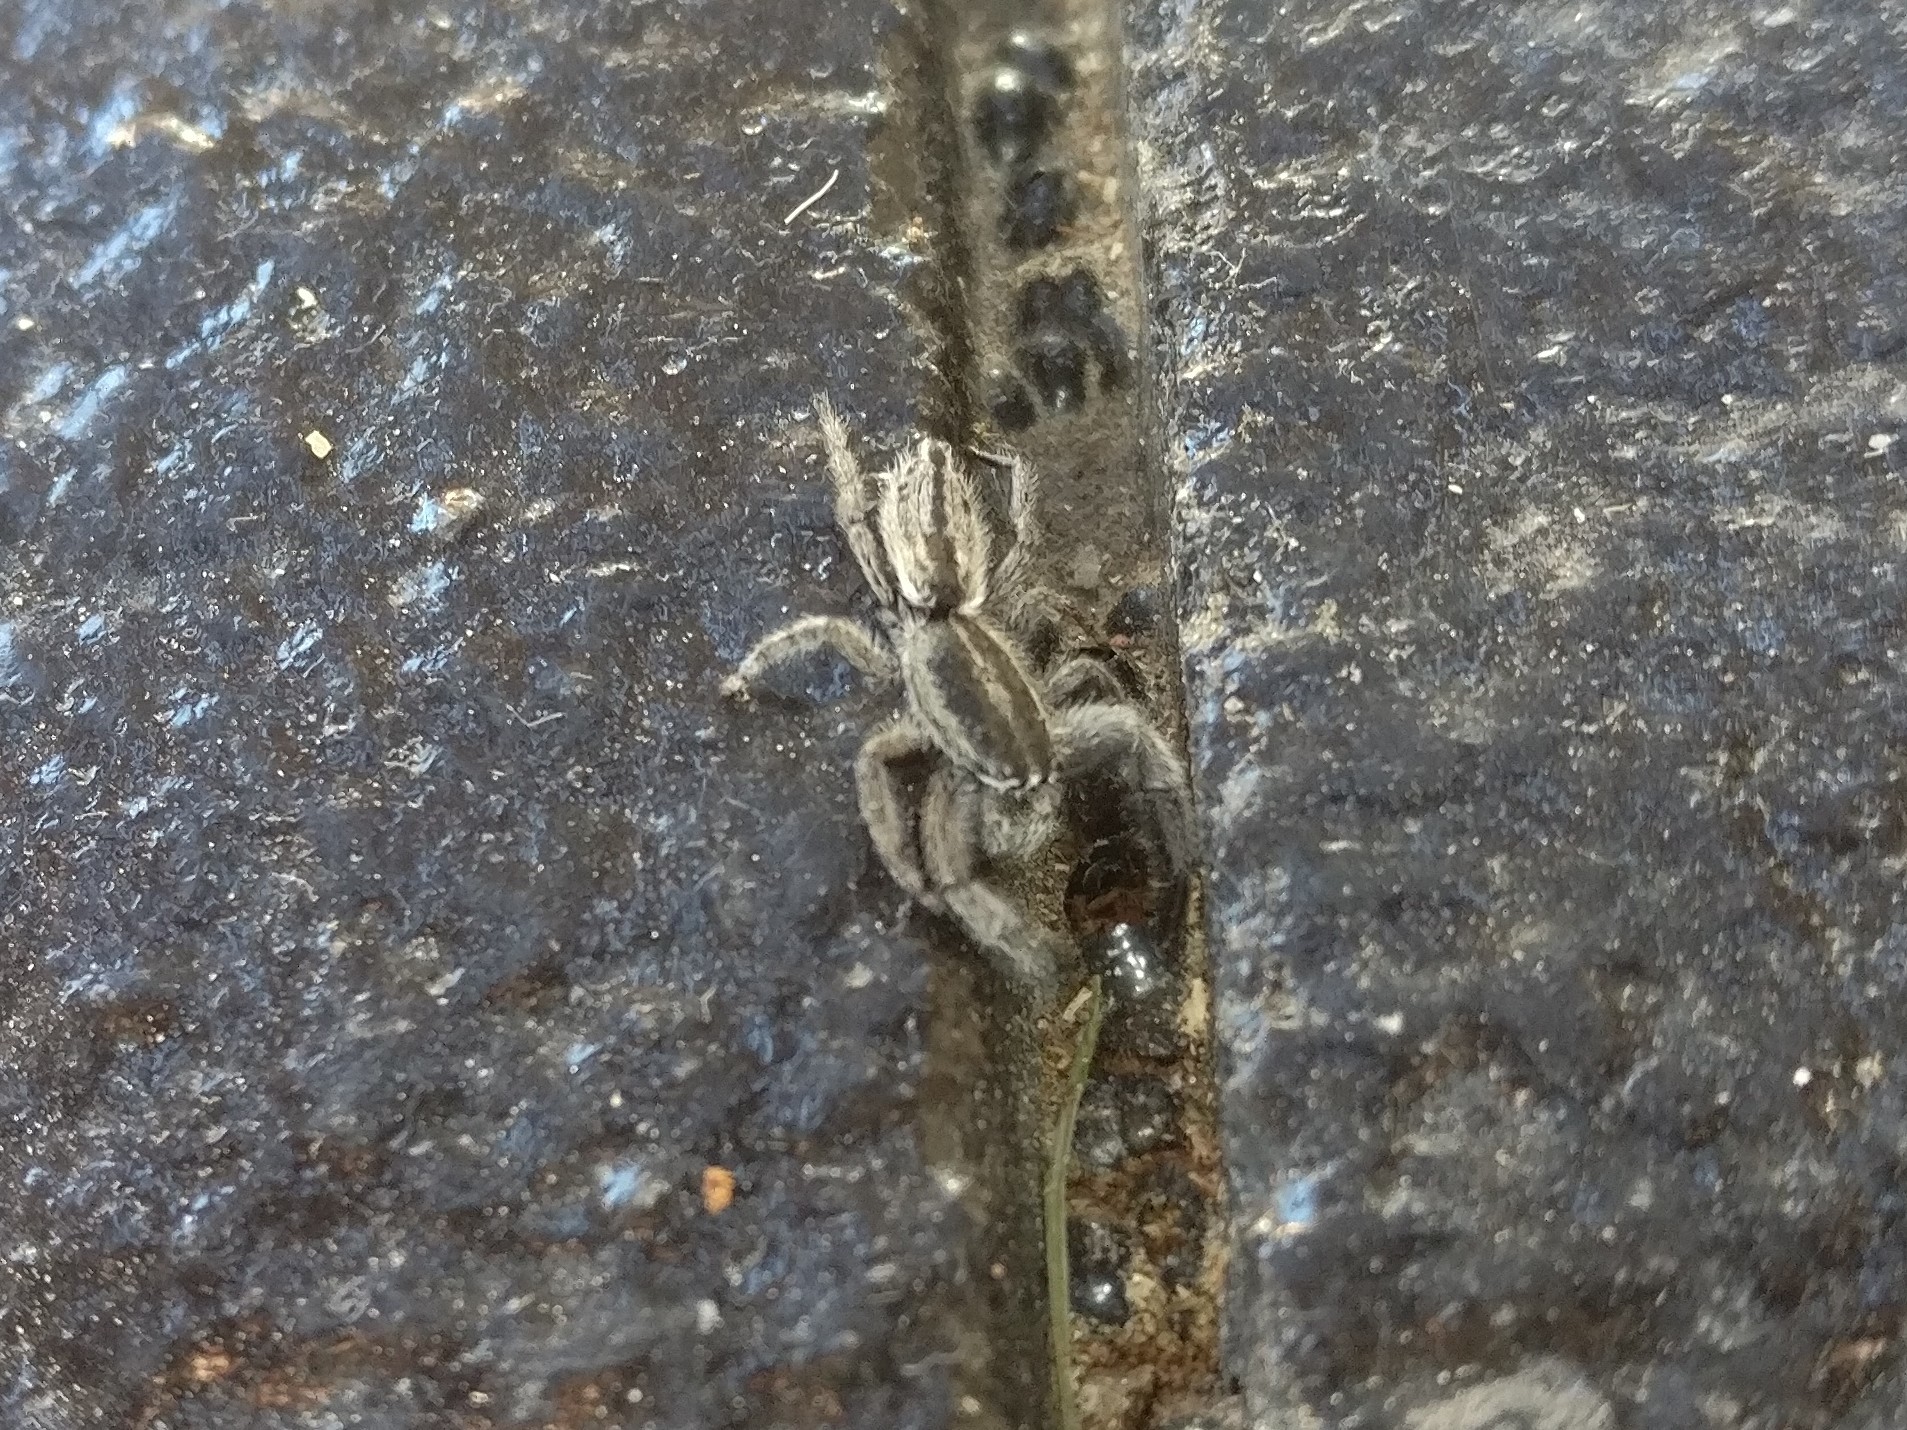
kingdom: Animalia
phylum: Arthropoda
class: Arachnida
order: Araneae
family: Salticidae
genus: Holoplatys
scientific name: Holoplatys apressus
